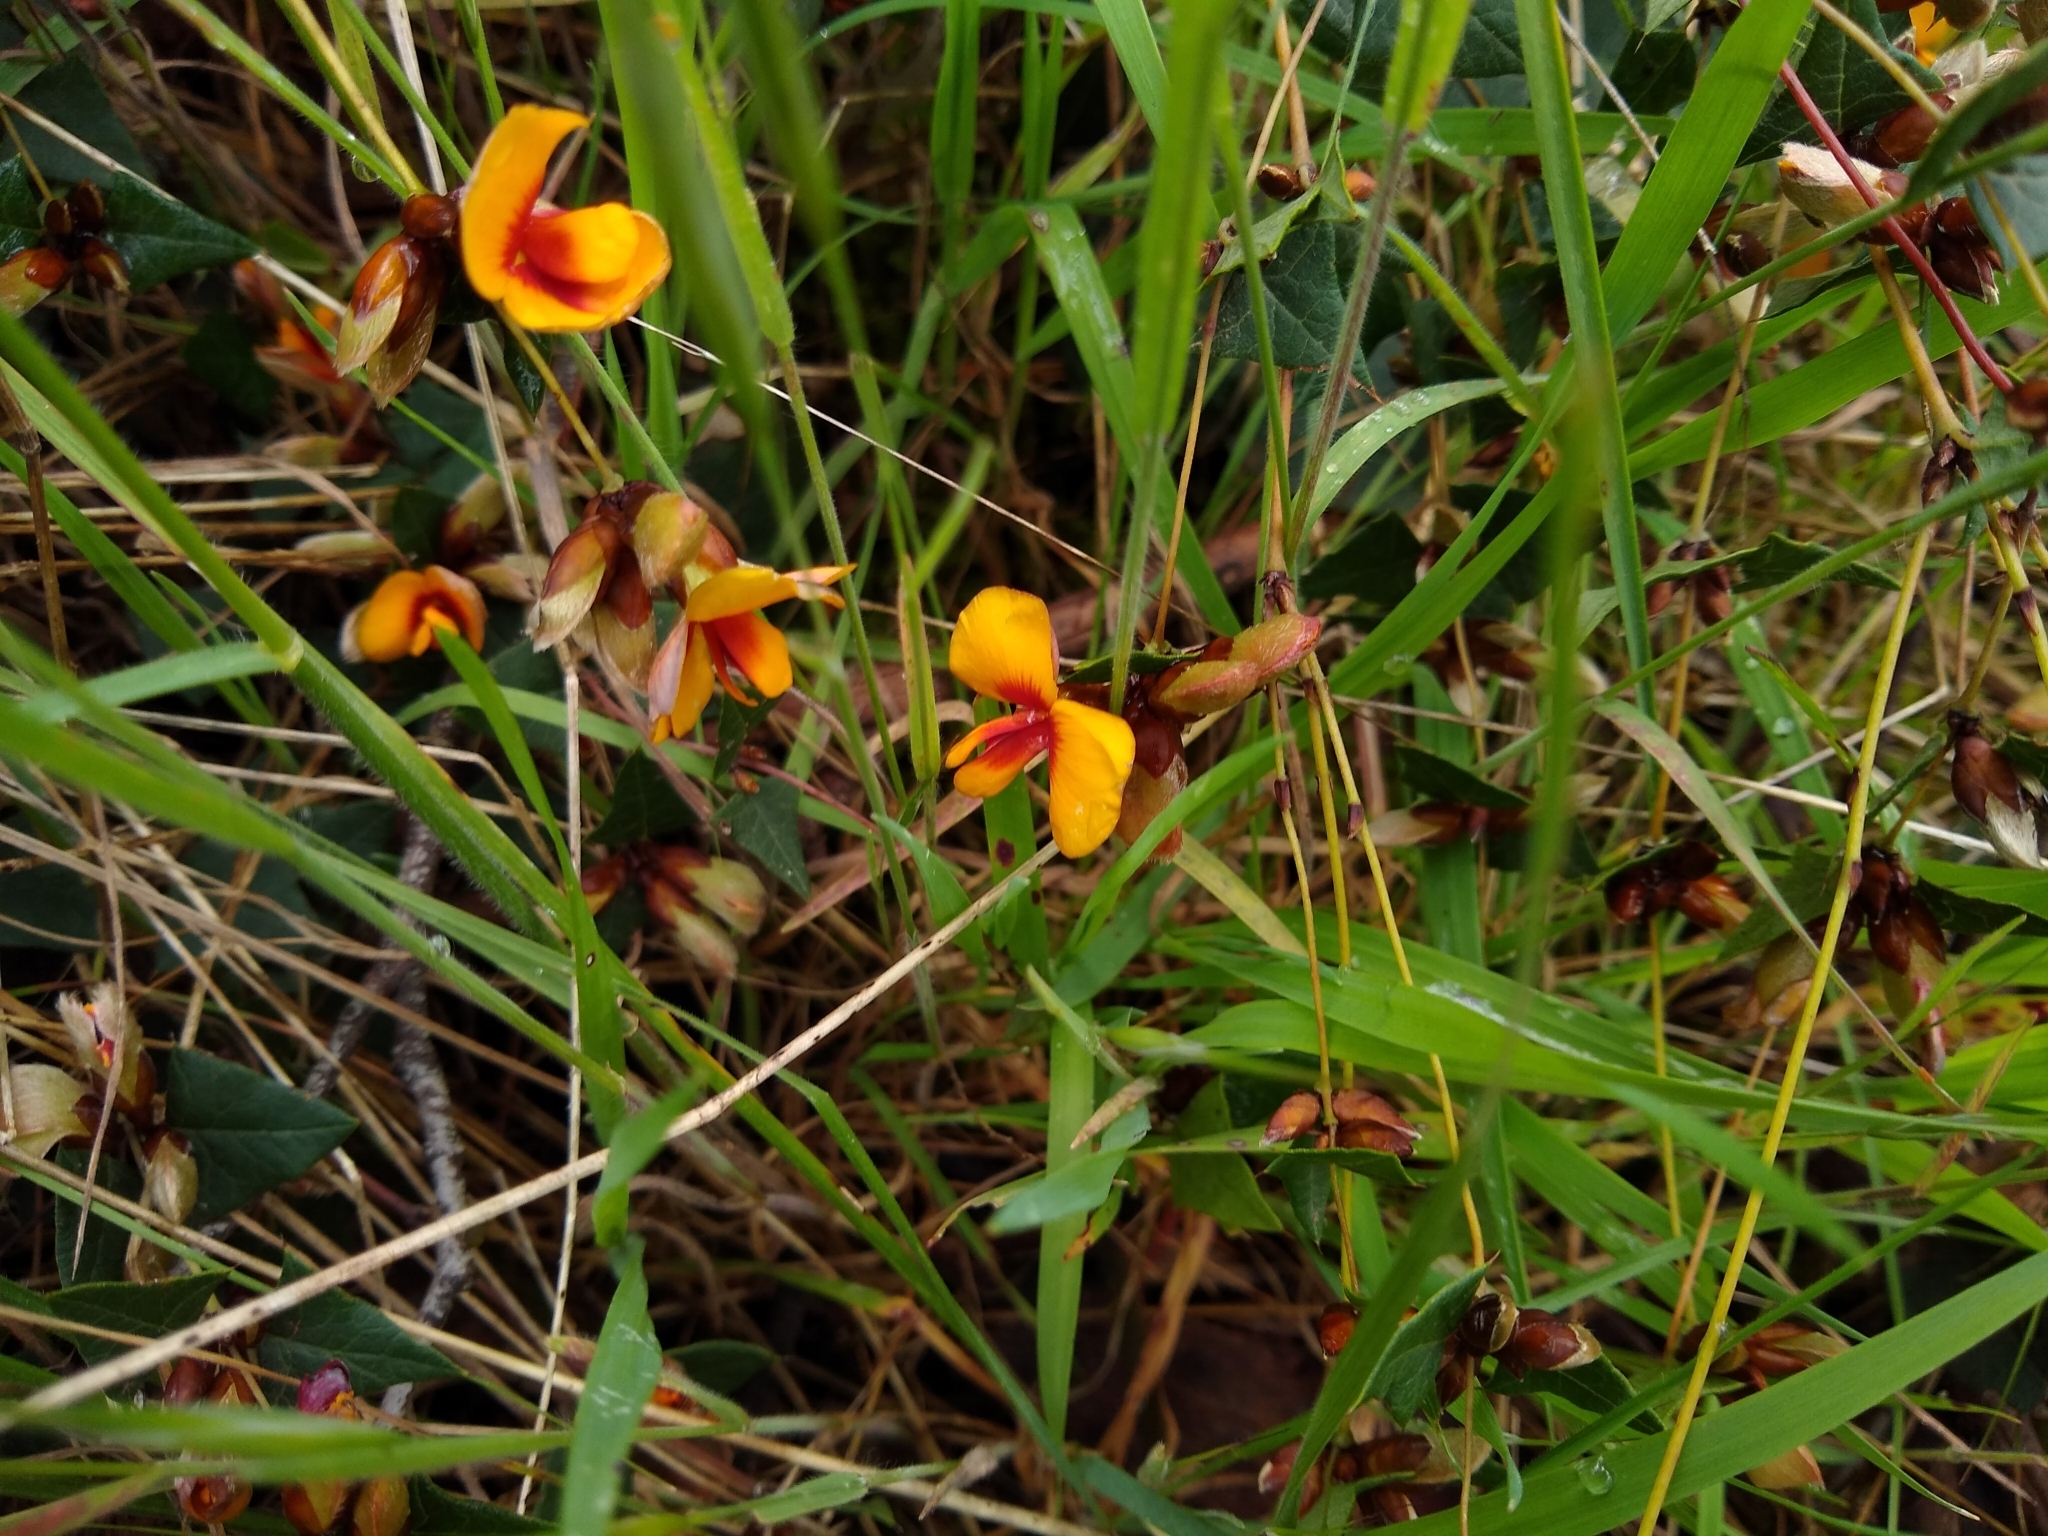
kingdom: Plantae
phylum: Tracheophyta
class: Magnoliopsida
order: Fabales
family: Fabaceae
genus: Platylobium
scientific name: Platylobium obtusangulum
